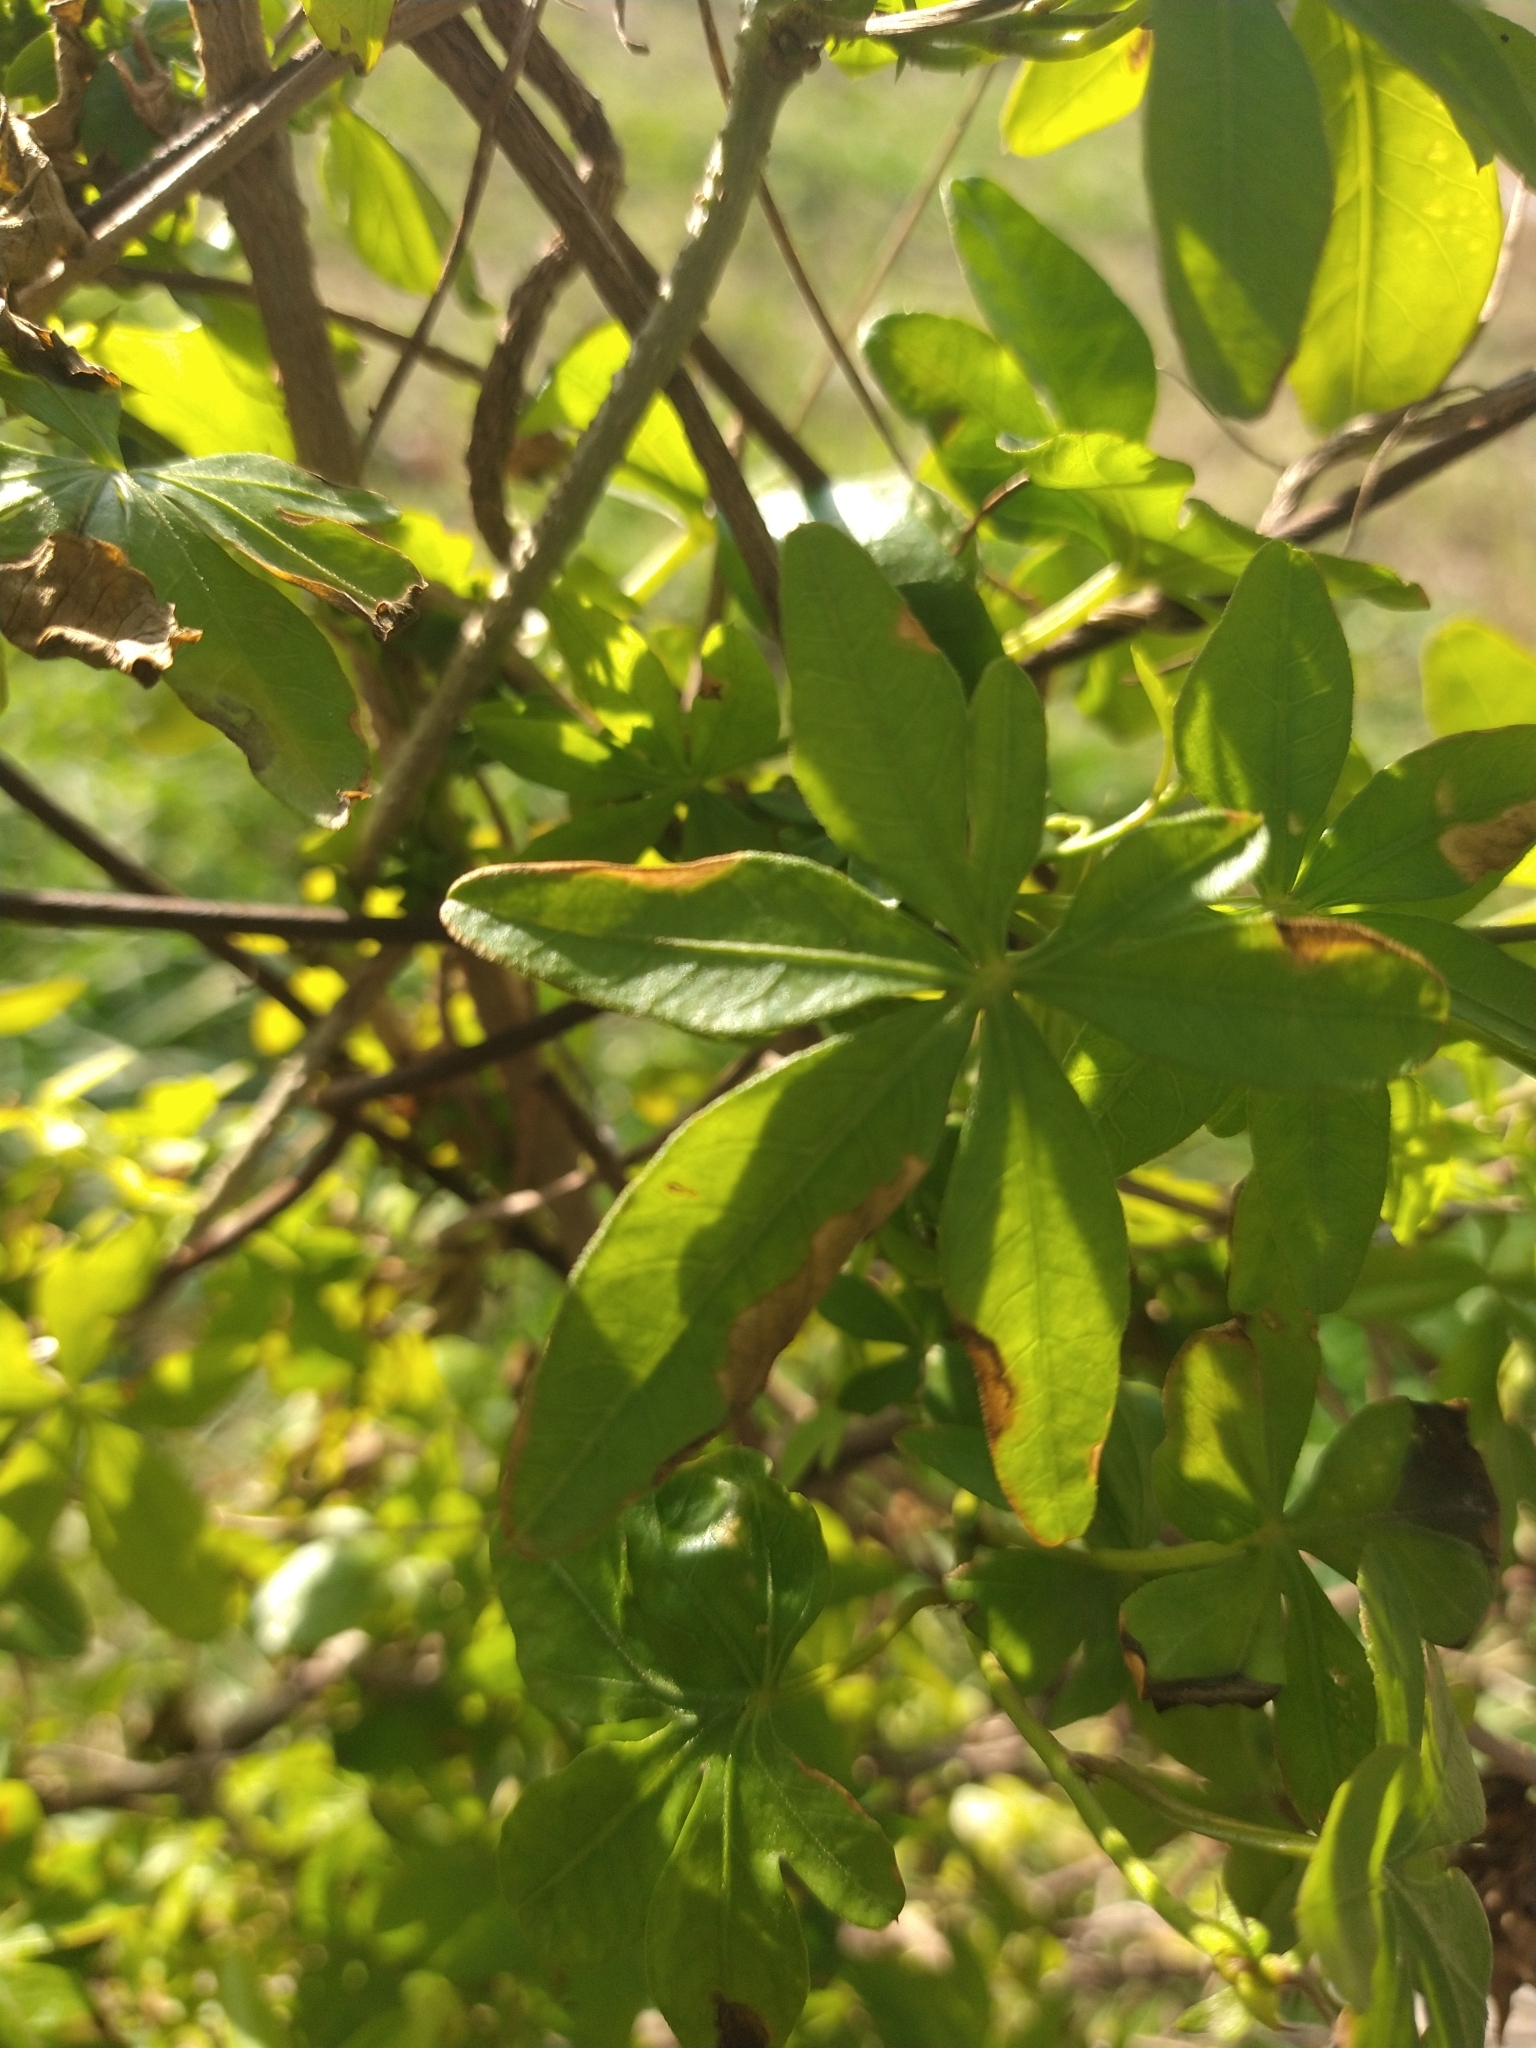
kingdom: Plantae
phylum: Tracheophyta
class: Magnoliopsida
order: Solanales
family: Convolvulaceae
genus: Ipomoea
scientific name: Ipomoea cairica
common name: Mile a minute vine
